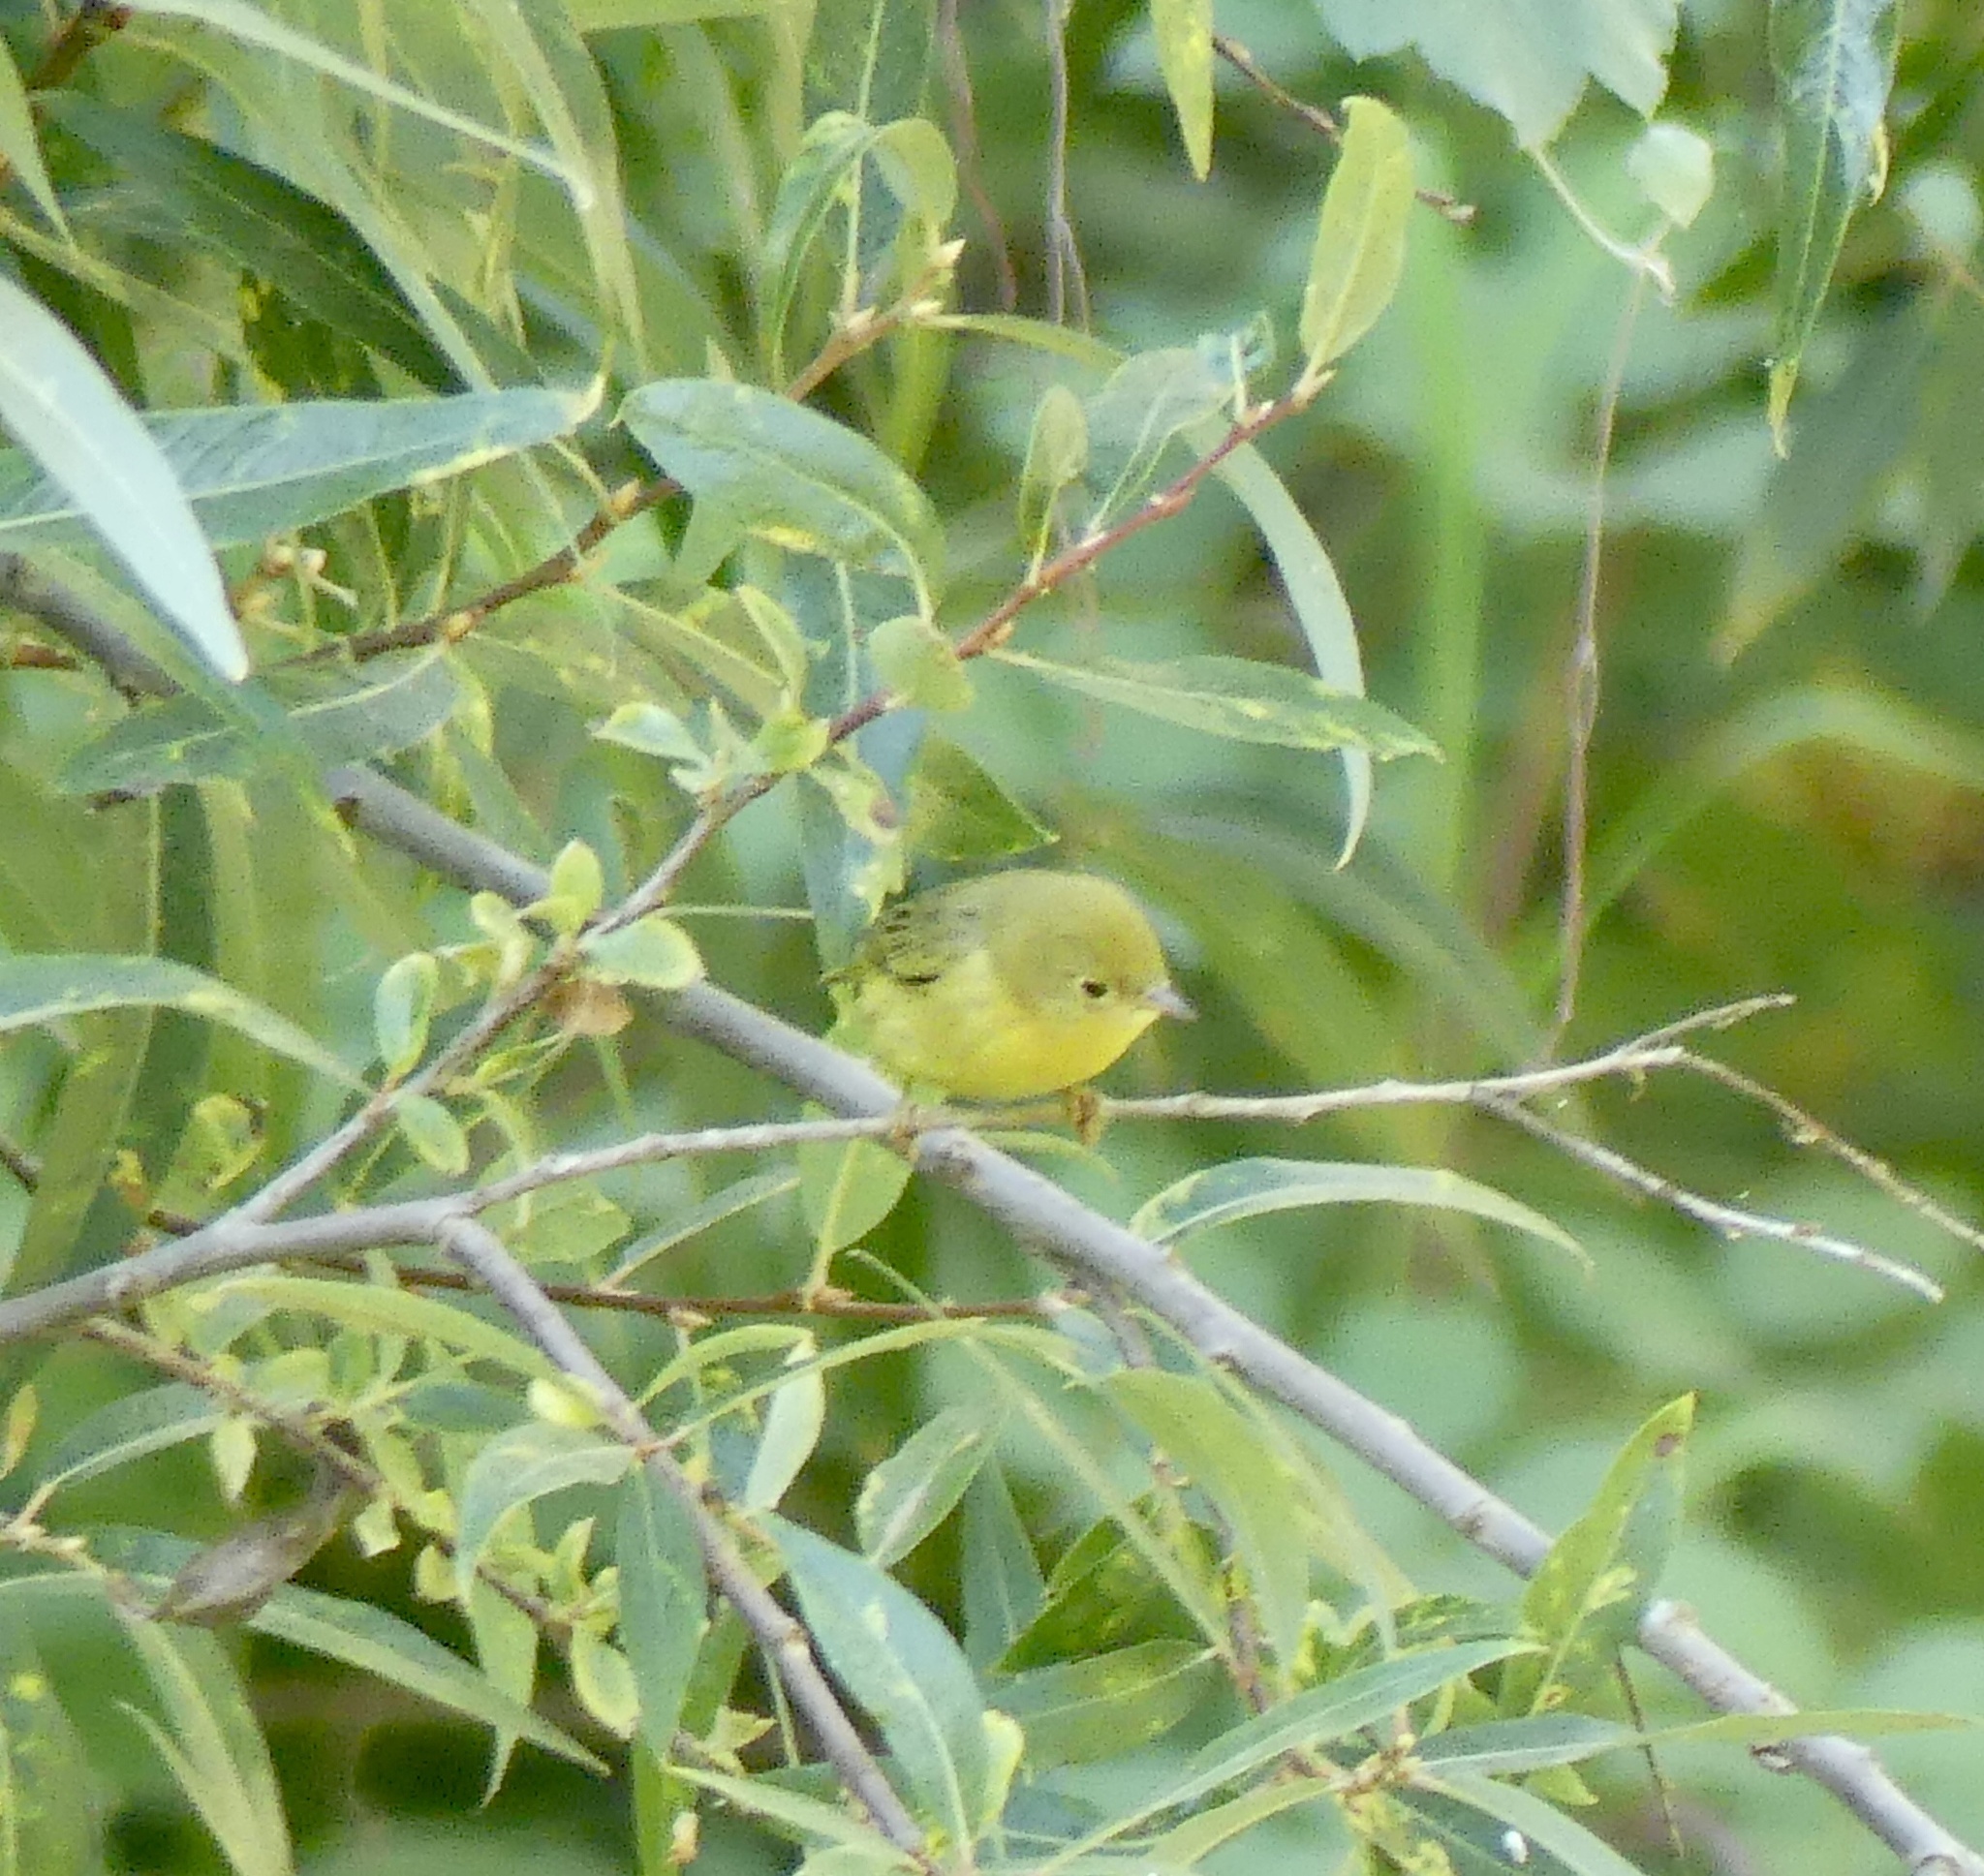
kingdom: Animalia
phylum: Chordata
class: Aves
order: Passeriformes
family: Parulidae
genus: Setophaga
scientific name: Setophaga petechia
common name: Yellow warbler
